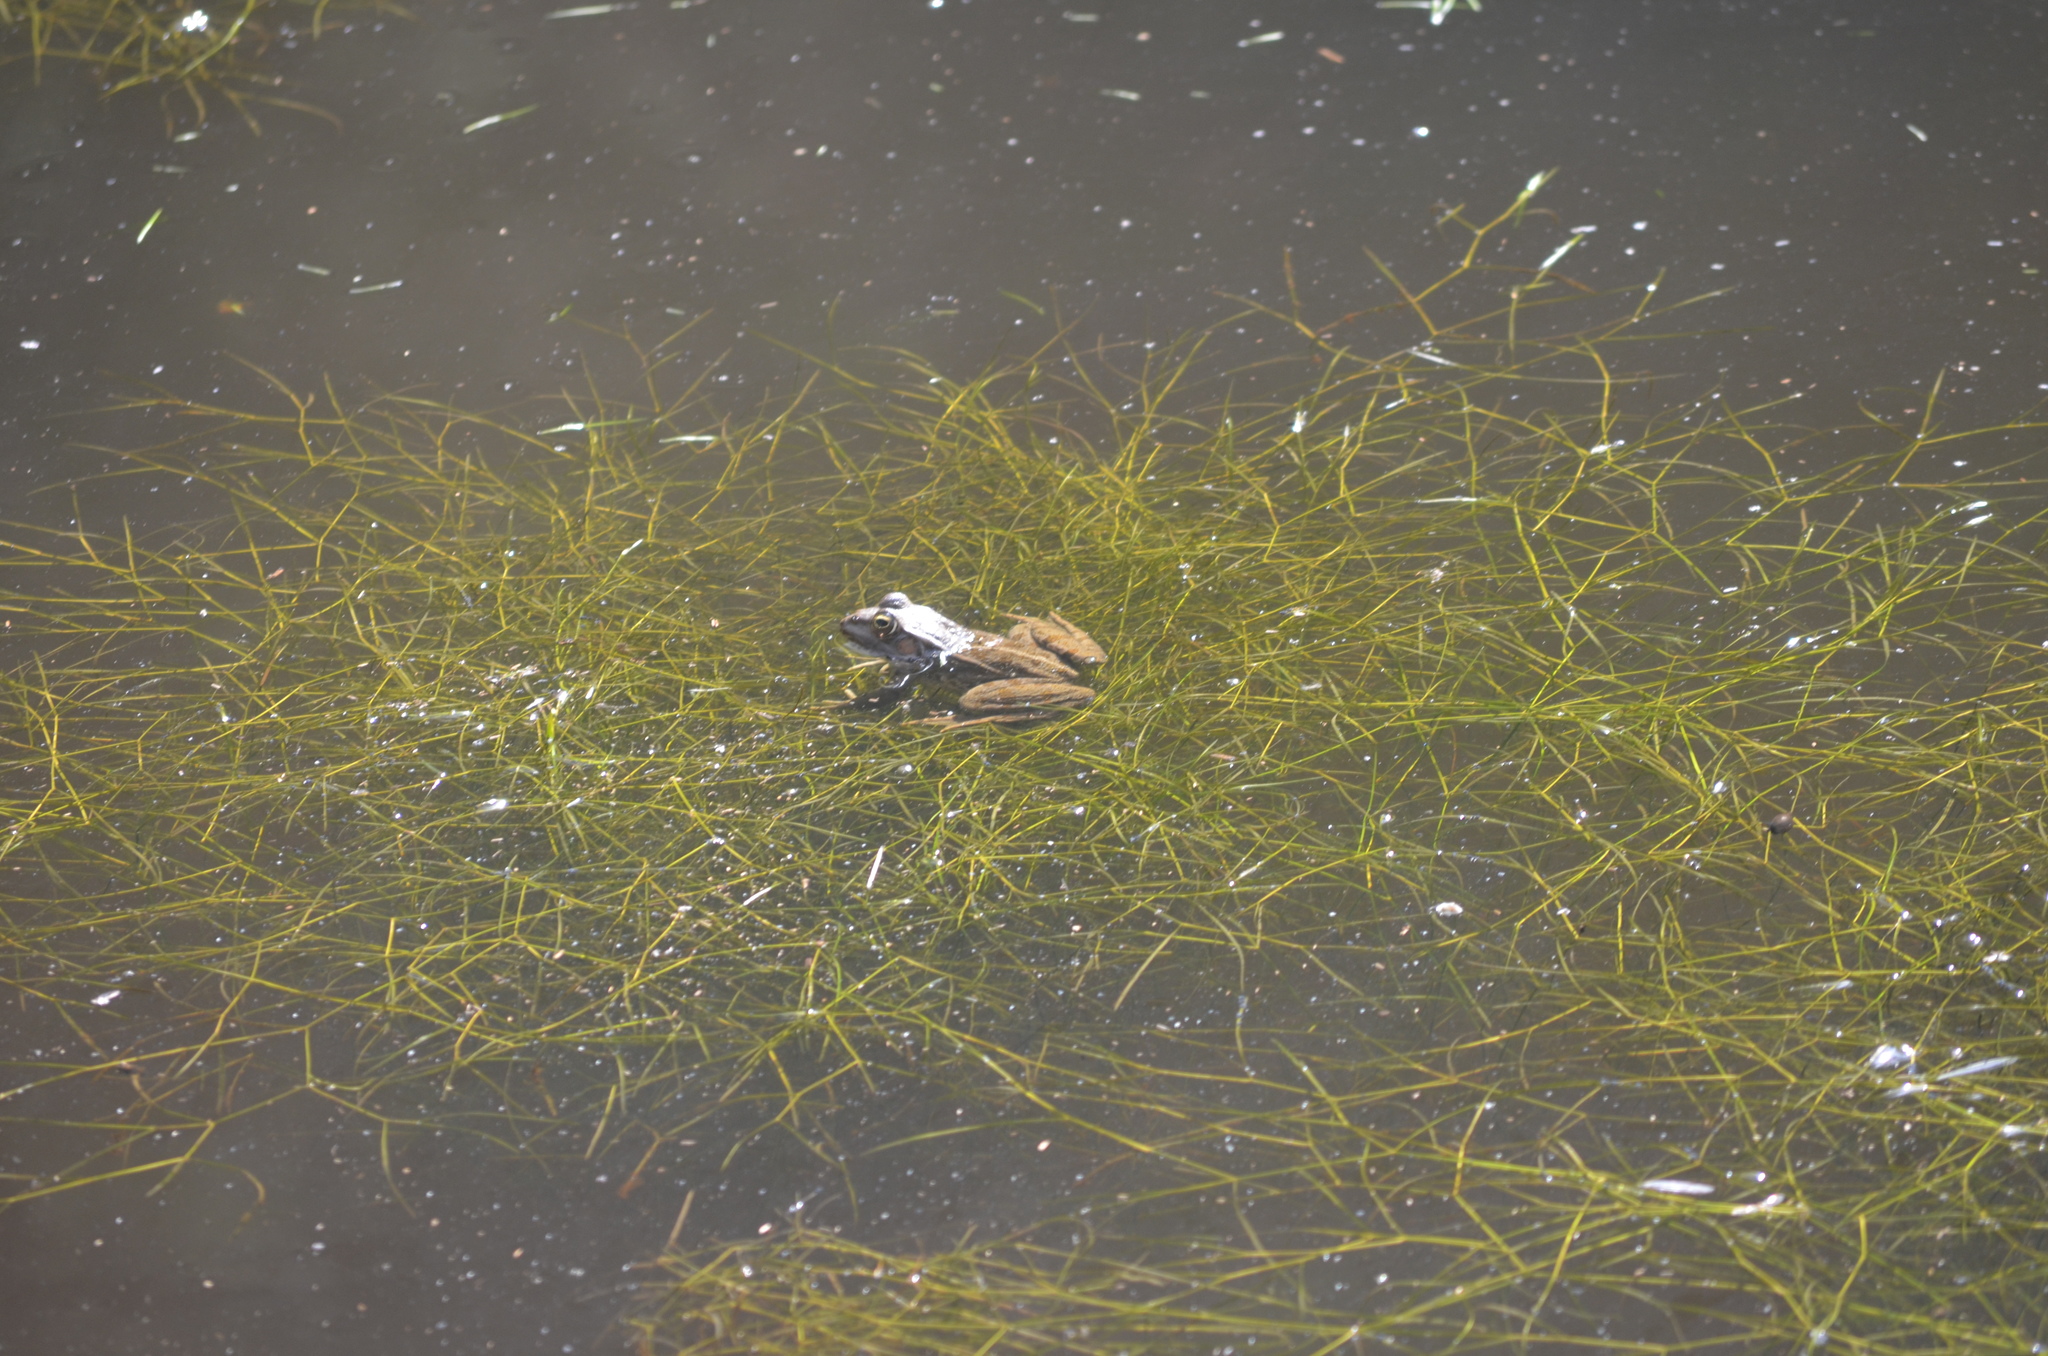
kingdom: Animalia
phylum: Chordata
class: Amphibia
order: Anura
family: Ranidae
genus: Pelophylax
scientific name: Pelophylax perezi
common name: Perez's frog
